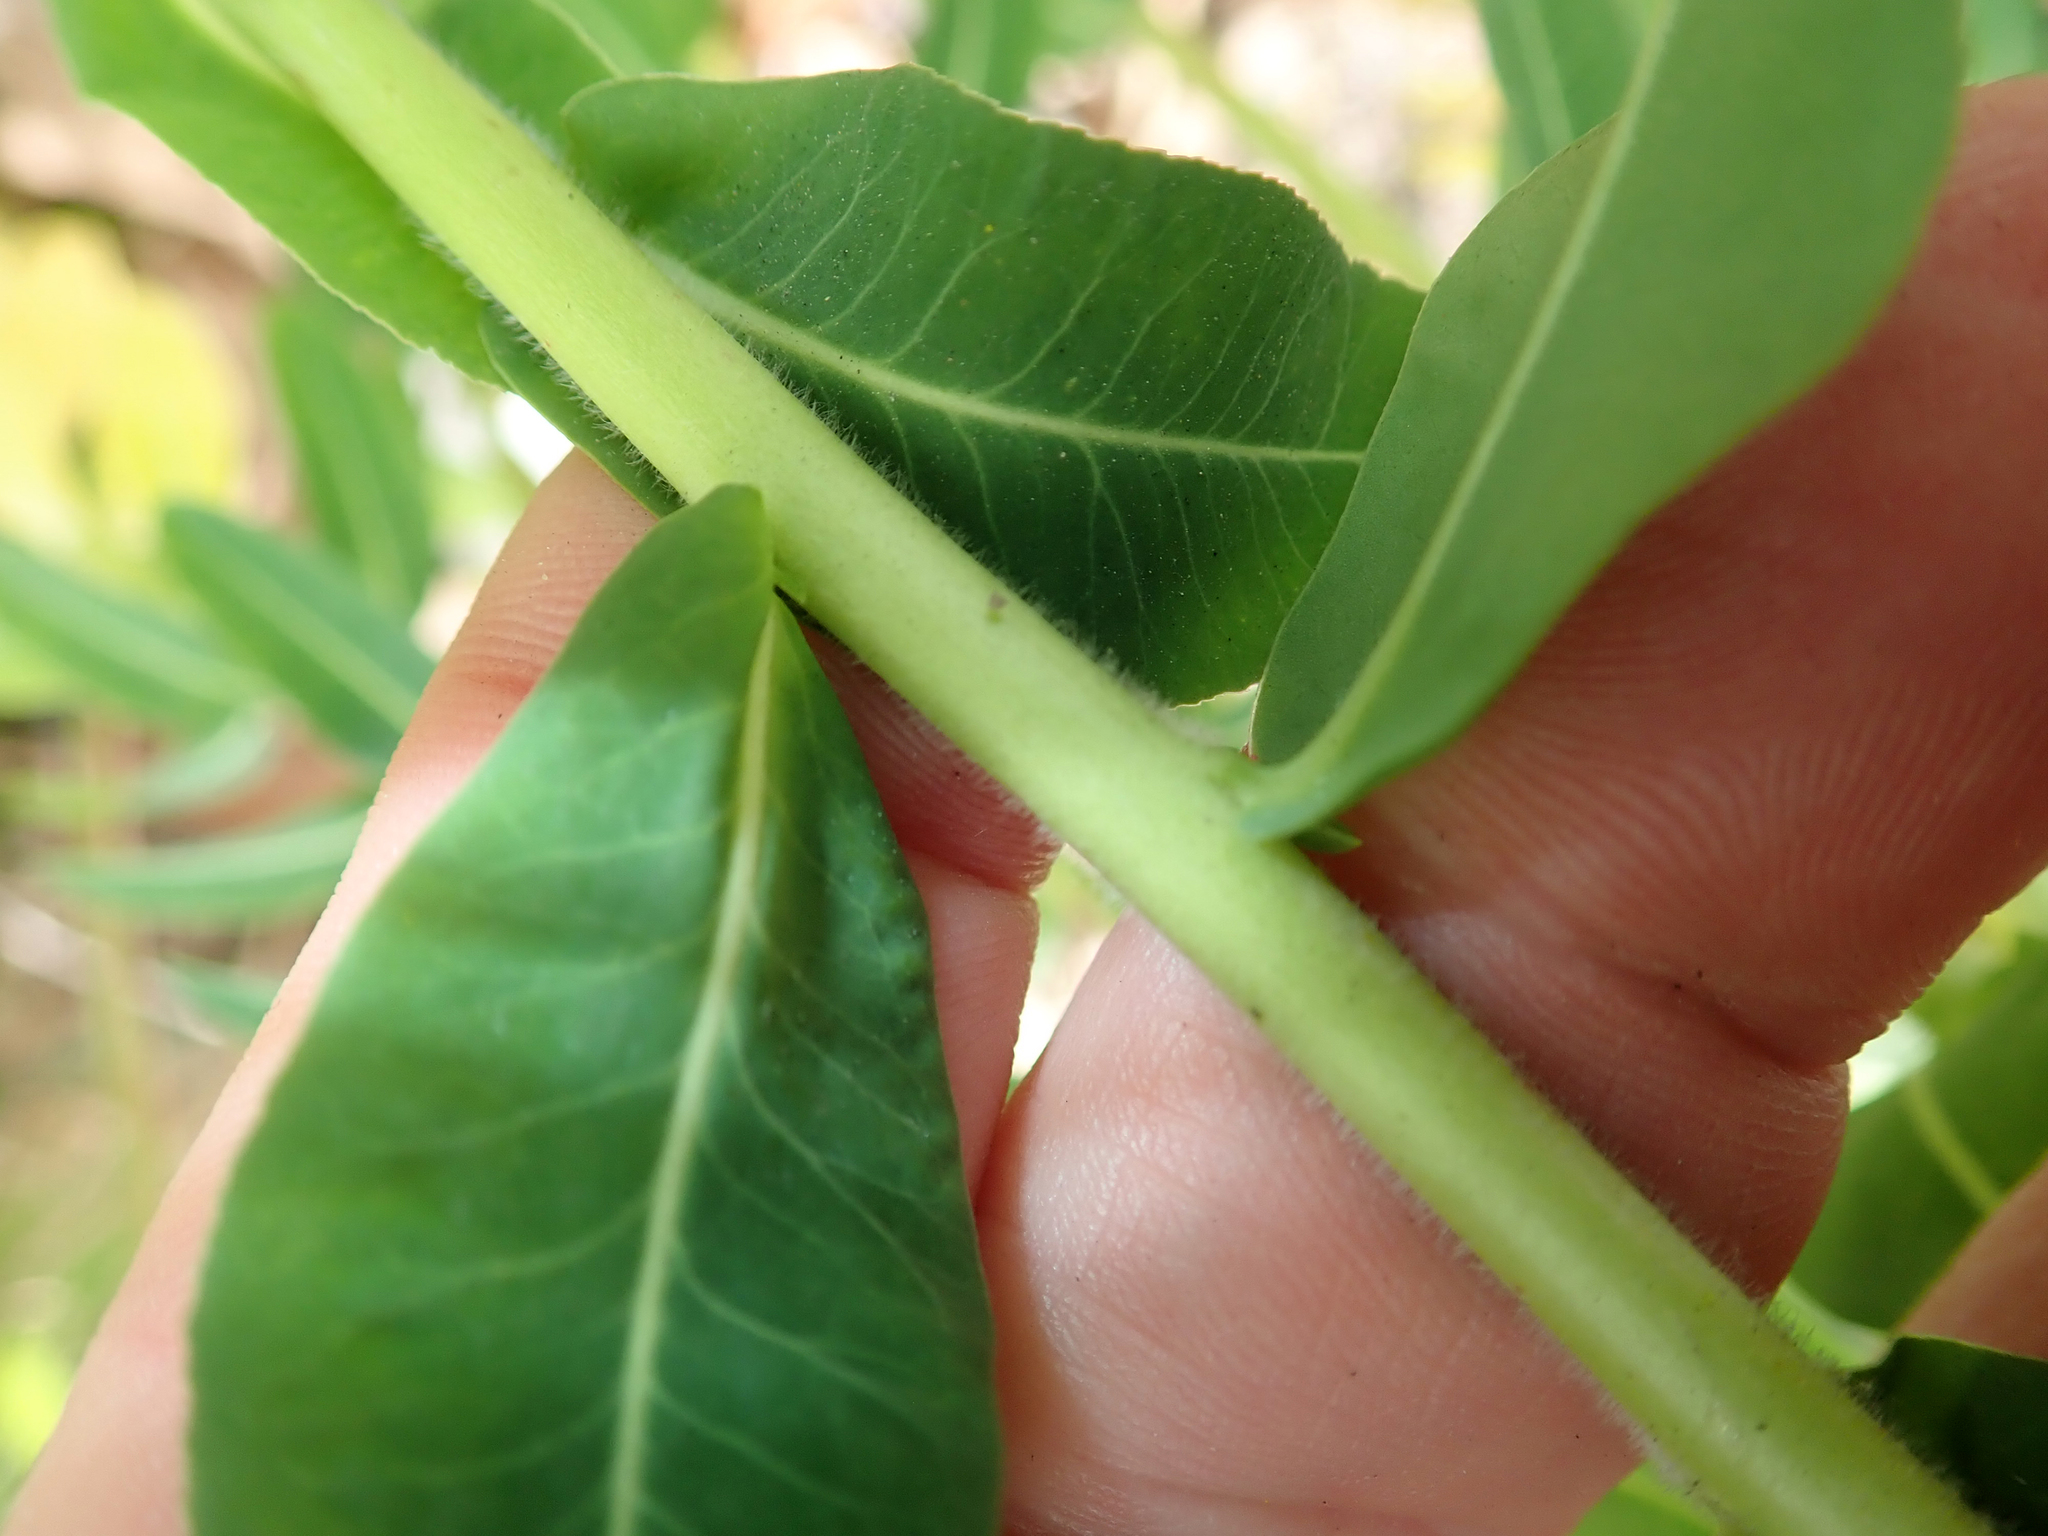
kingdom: Plantae
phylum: Tracheophyta
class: Magnoliopsida
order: Malpighiales
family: Euphorbiaceae
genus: Euphorbia
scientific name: Euphorbia oblongata
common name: Balkan spurge
